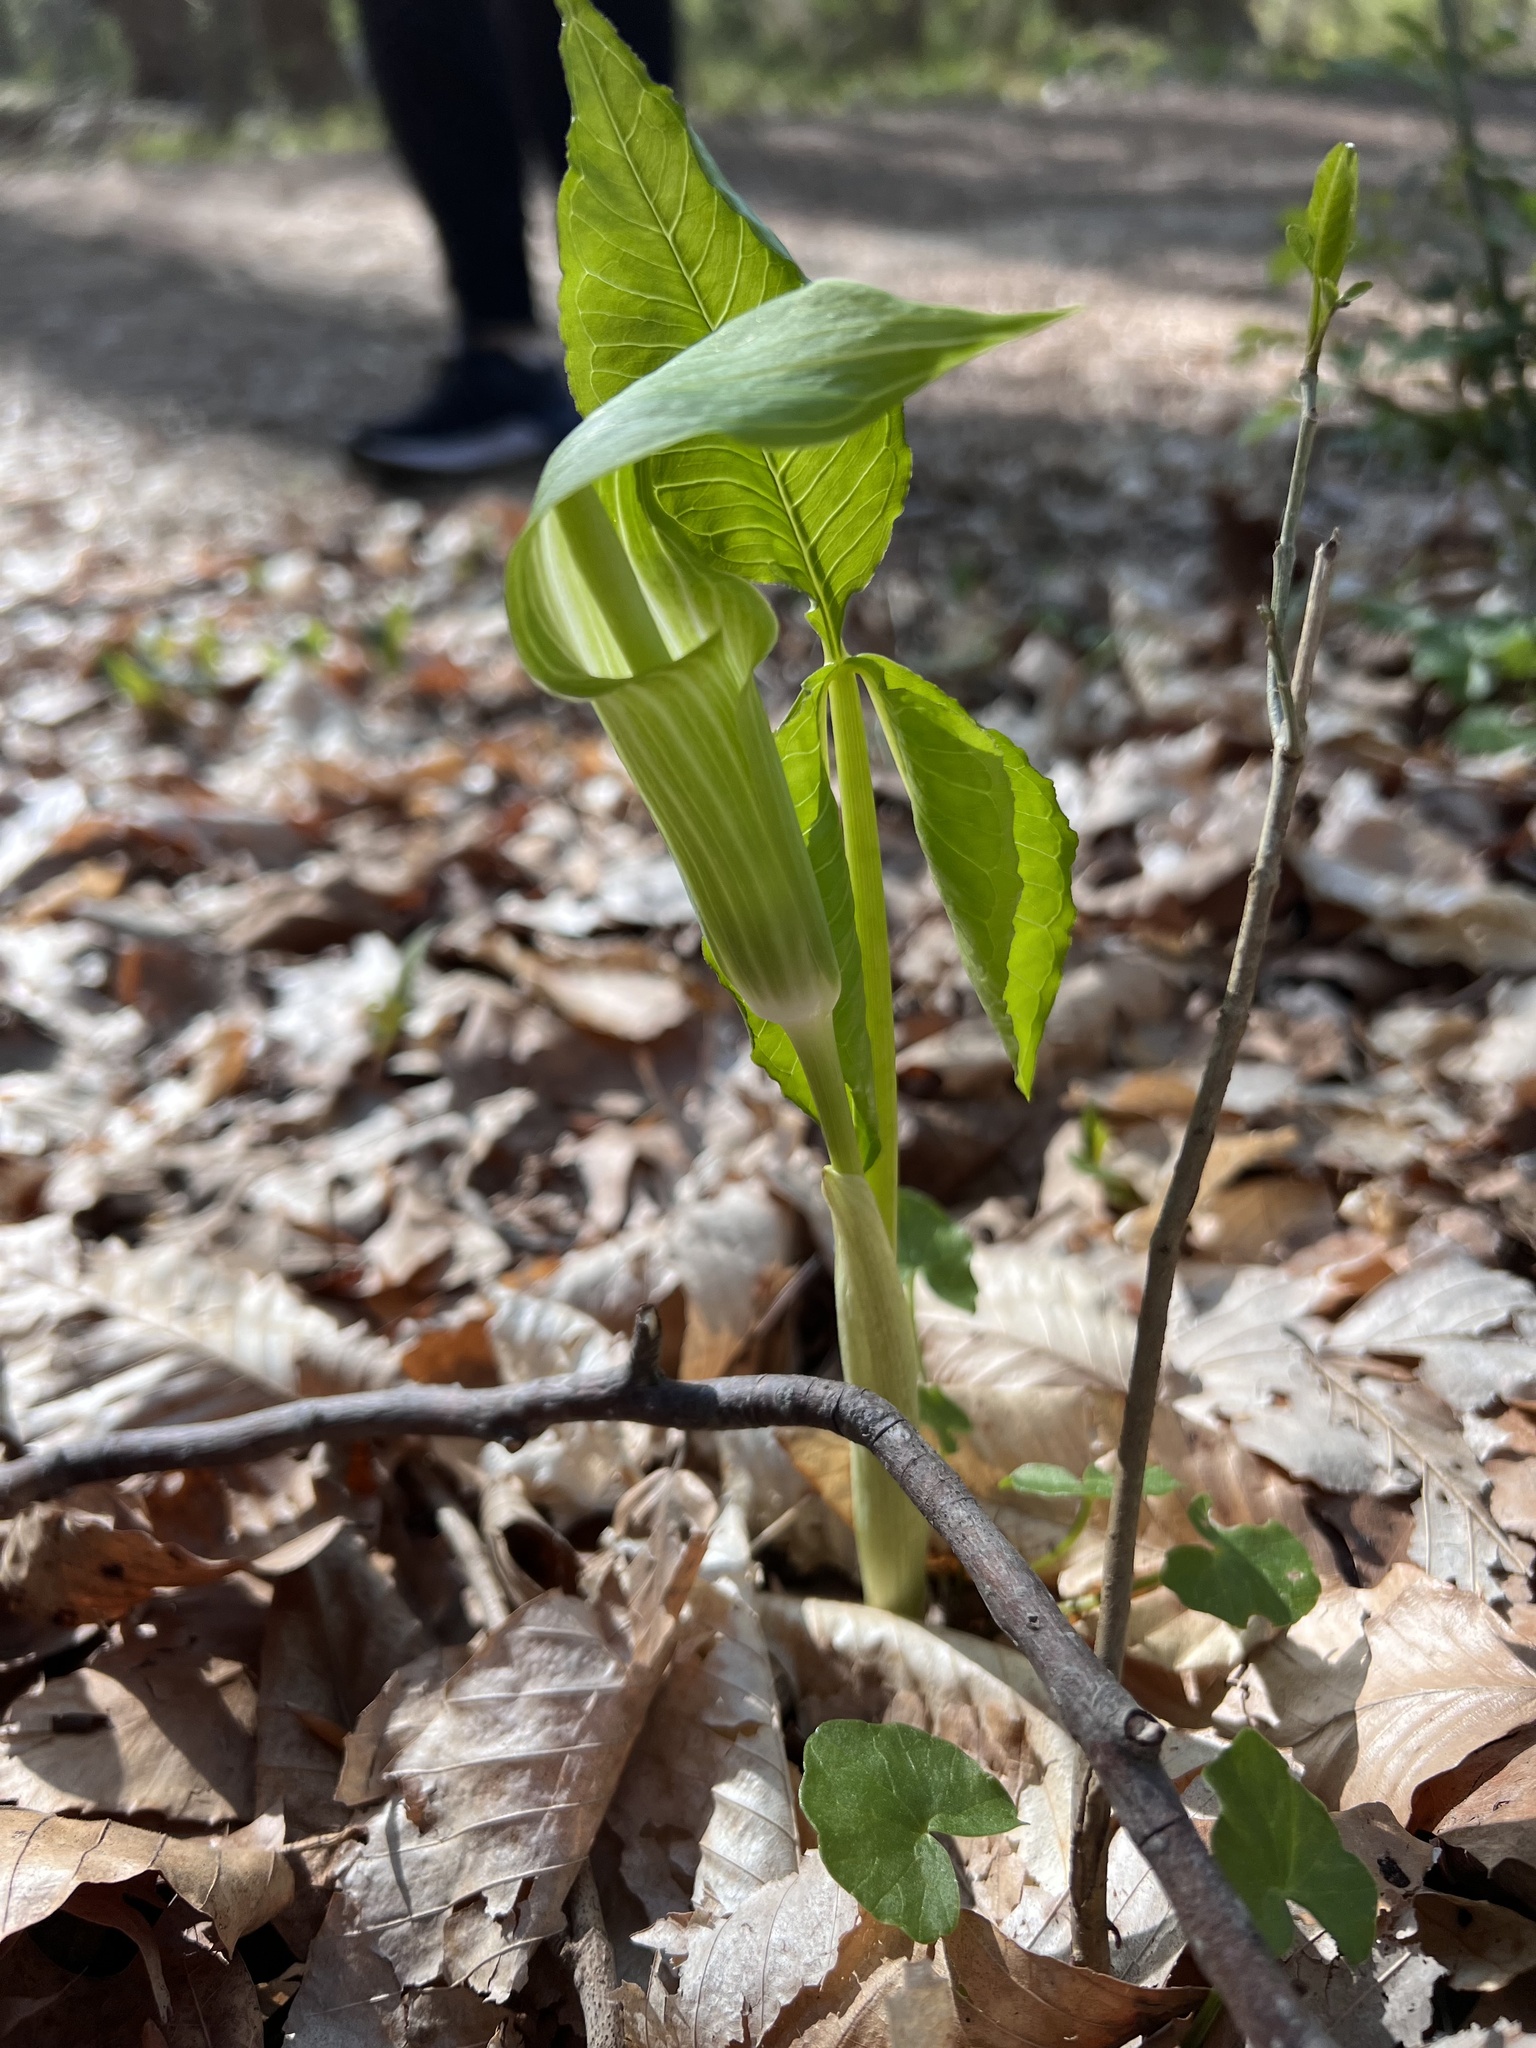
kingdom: Plantae
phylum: Tracheophyta
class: Liliopsida
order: Alismatales
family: Araceae
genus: Arisaema
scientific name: Arisaema triphyllum
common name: Jack-in-the-pulpit
